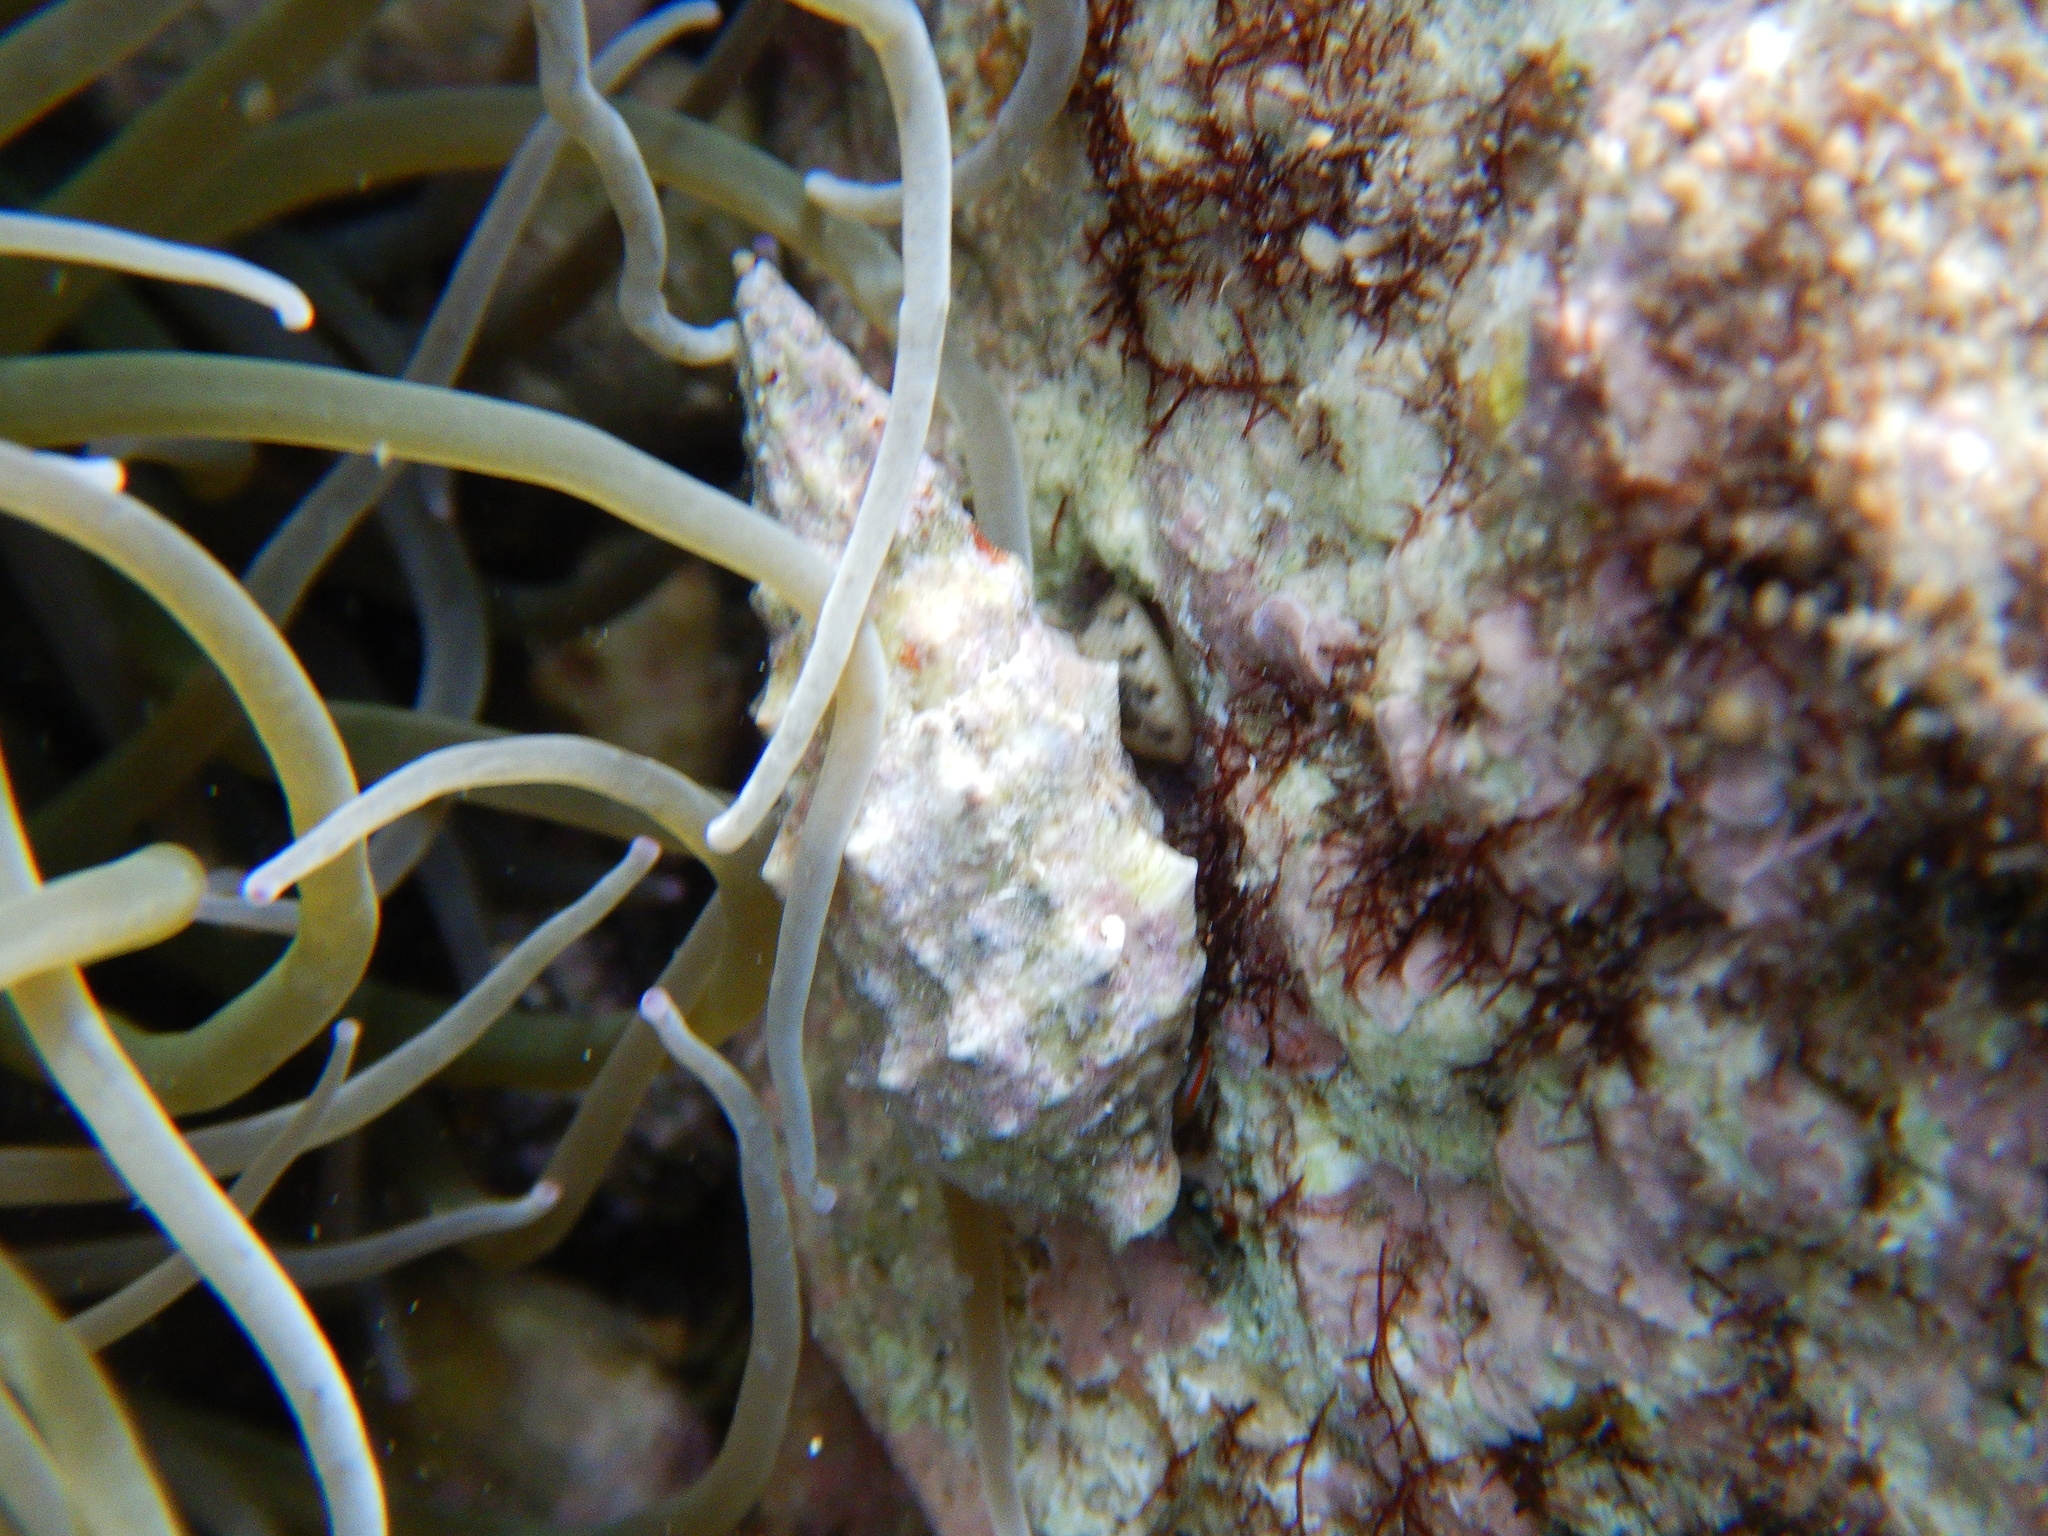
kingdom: Animalia
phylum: Mollusca
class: Gastropoda
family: Cerithiidae
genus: Cerithium
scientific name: Cerithium vulgatum
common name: European cerith
